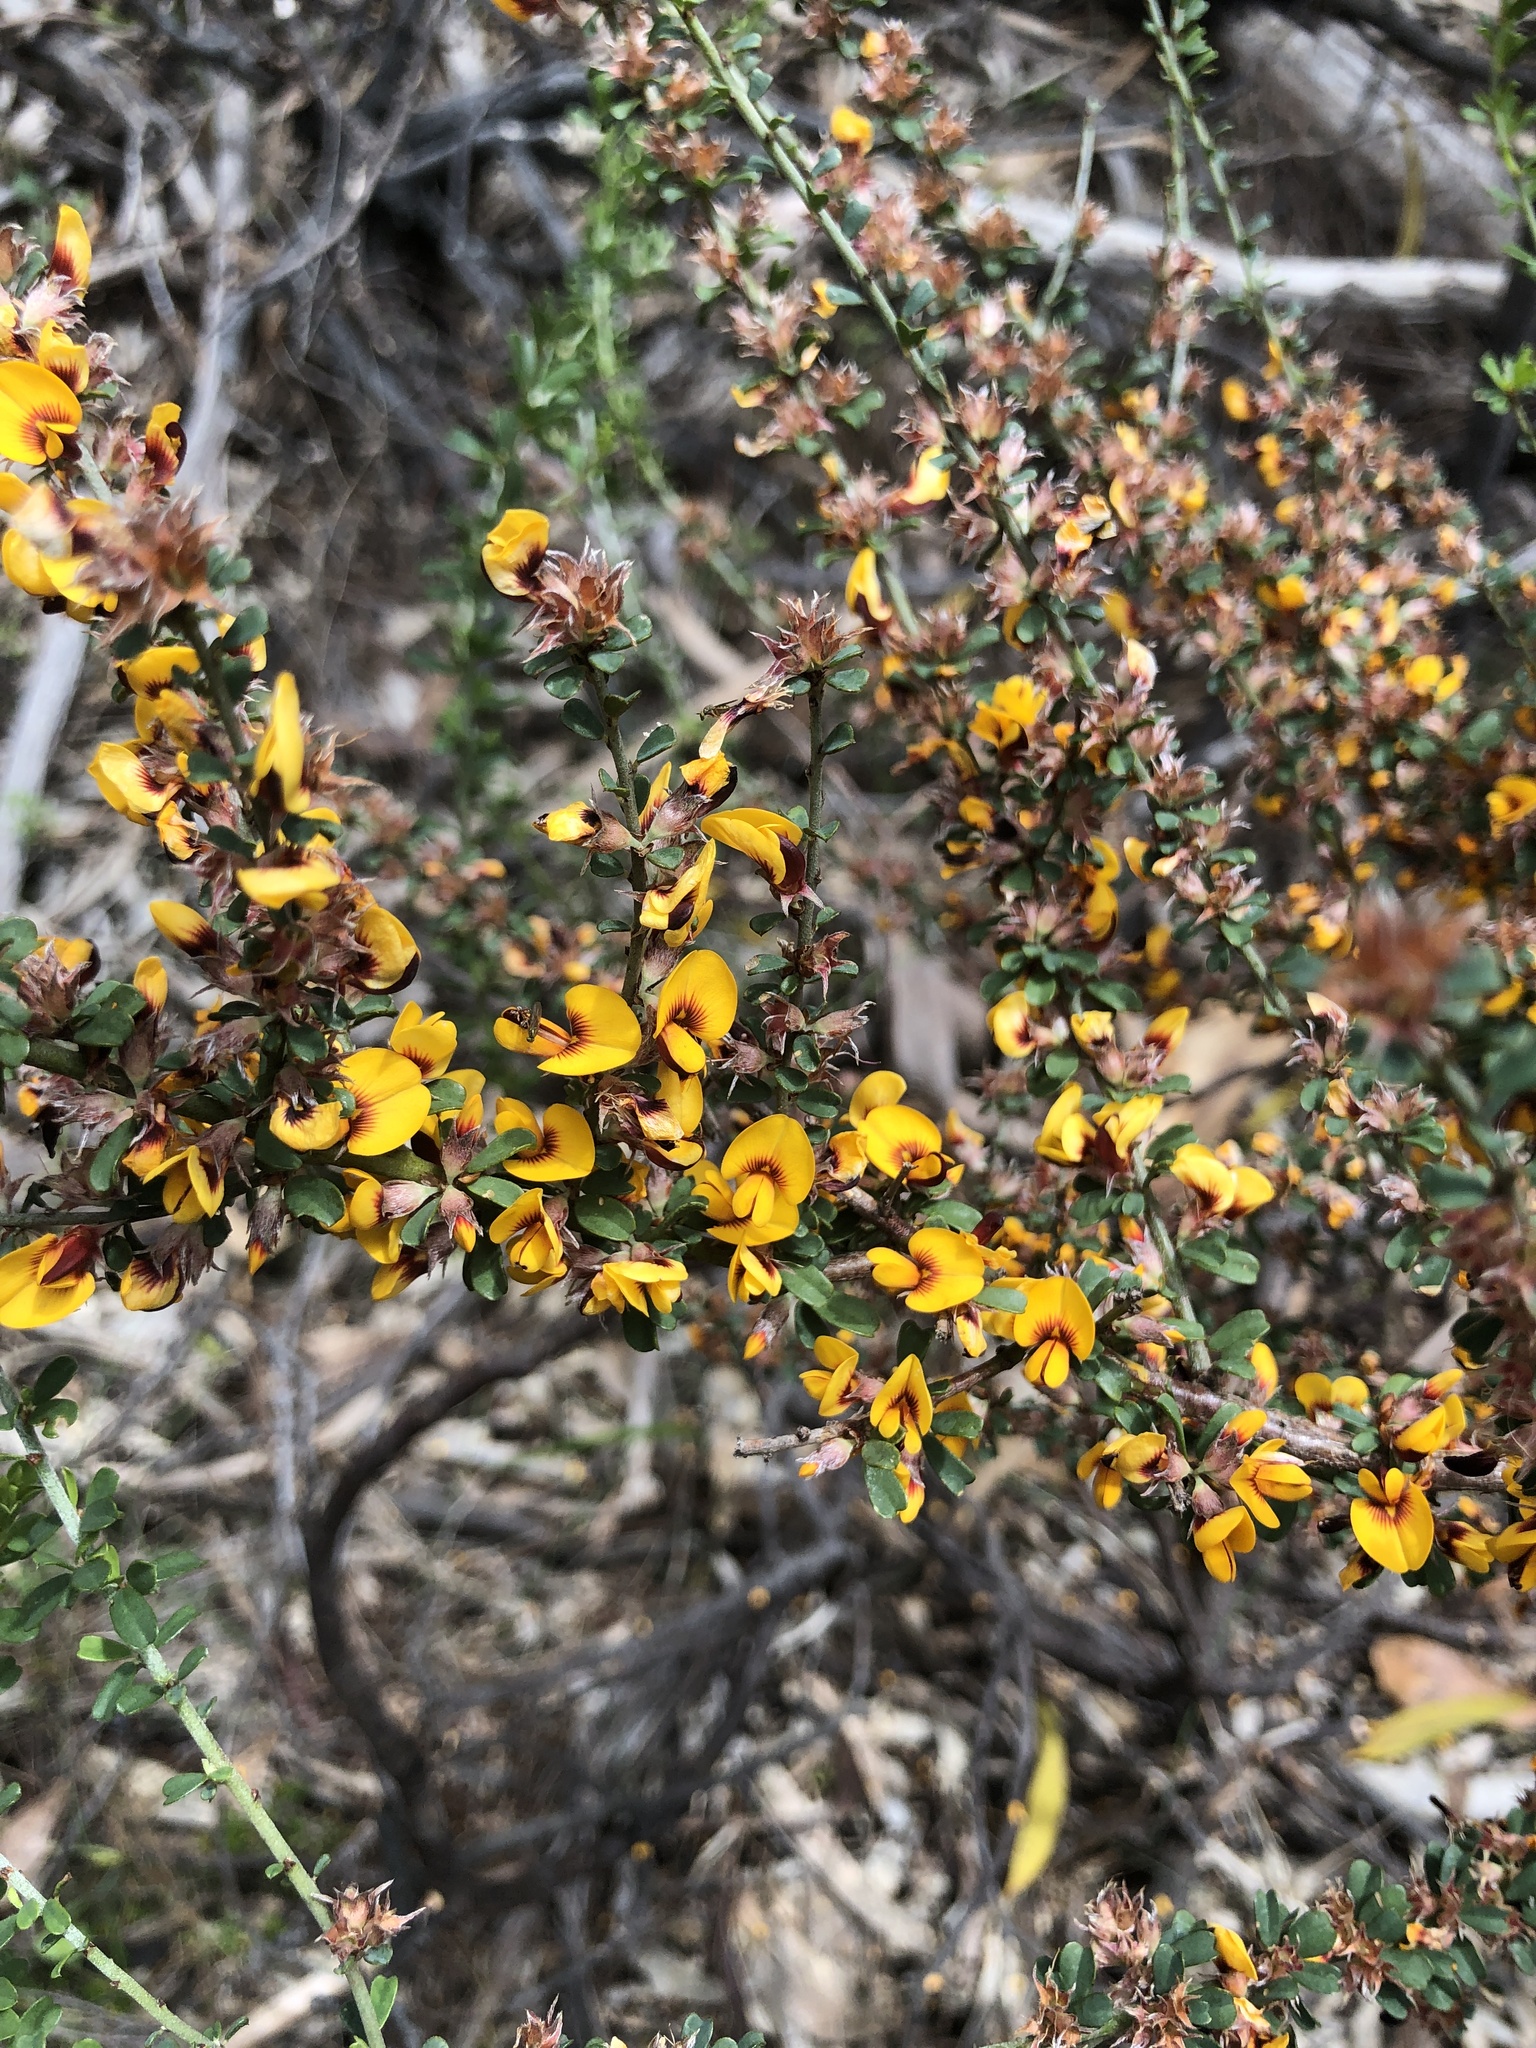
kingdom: Plantae
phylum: Tracheophyta
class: Magnoliopsida
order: Fabales
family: Fabaceae
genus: Pultenaea
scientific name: Pultenaea largiflorens
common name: Twiggy bush-pea
